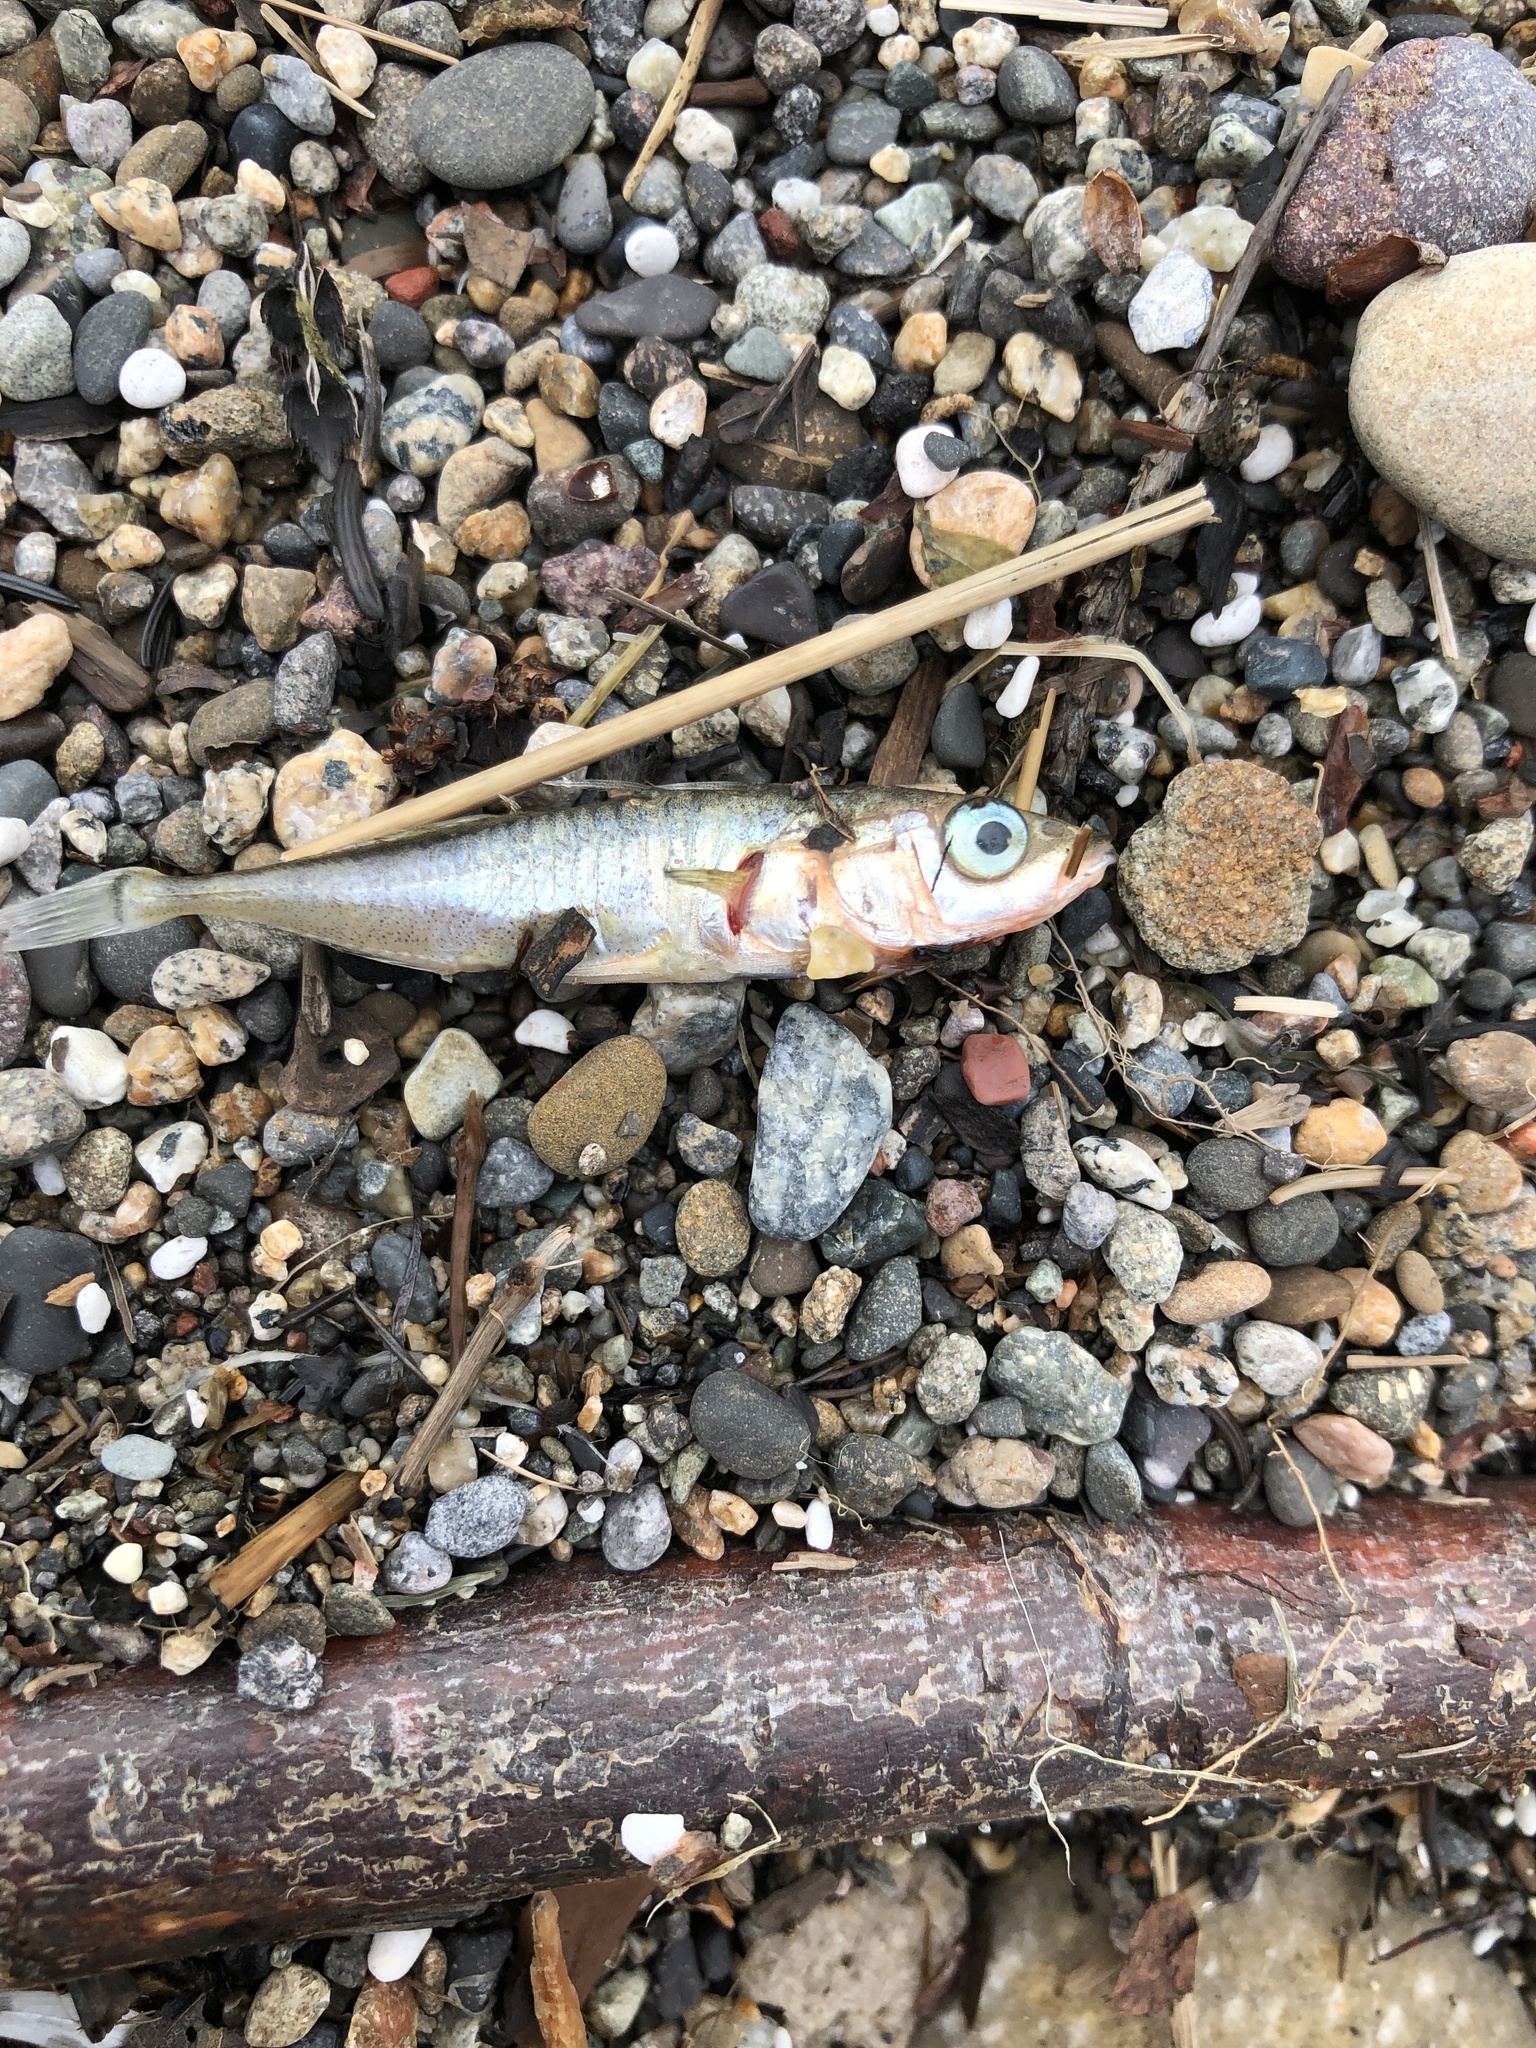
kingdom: Animalia
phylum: Chordata
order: Gasterosteiformes
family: Gasterosteidae
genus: Gasterosteus
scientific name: Gasterosteus aculeatus
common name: Three-spined stickleback
